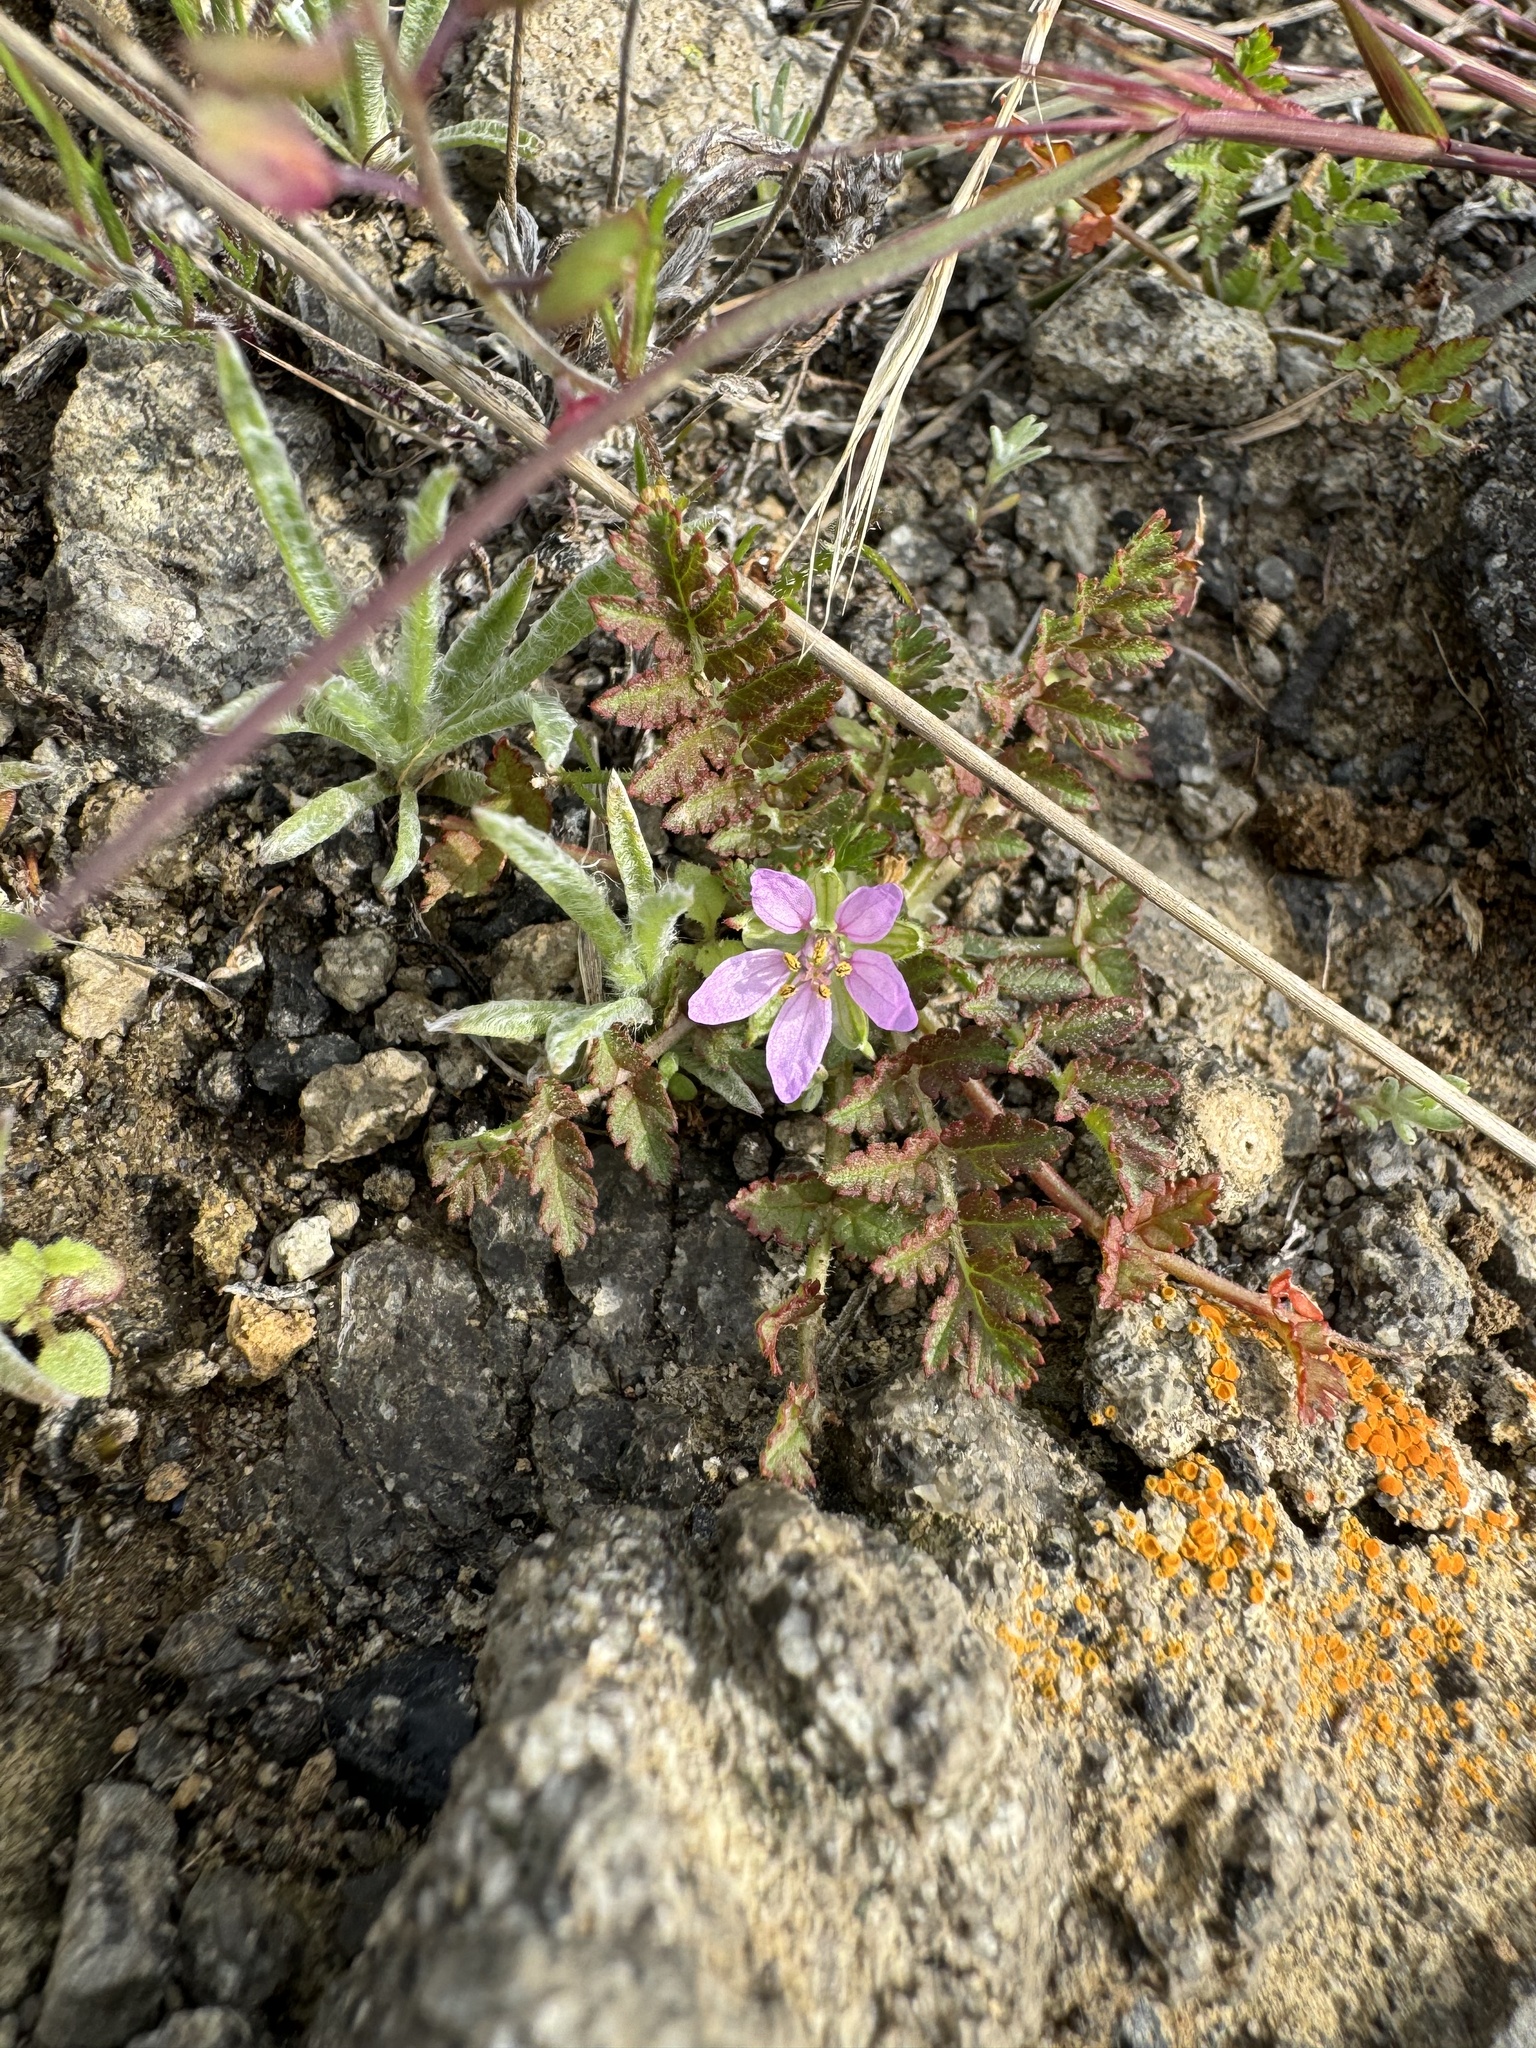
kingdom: Plantae
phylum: Tracheophyta
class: Magnoliopsida
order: Geraniales
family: Geraniaceae
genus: Erodium
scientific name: Erodium moschatum
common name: Musk stork's-bill
